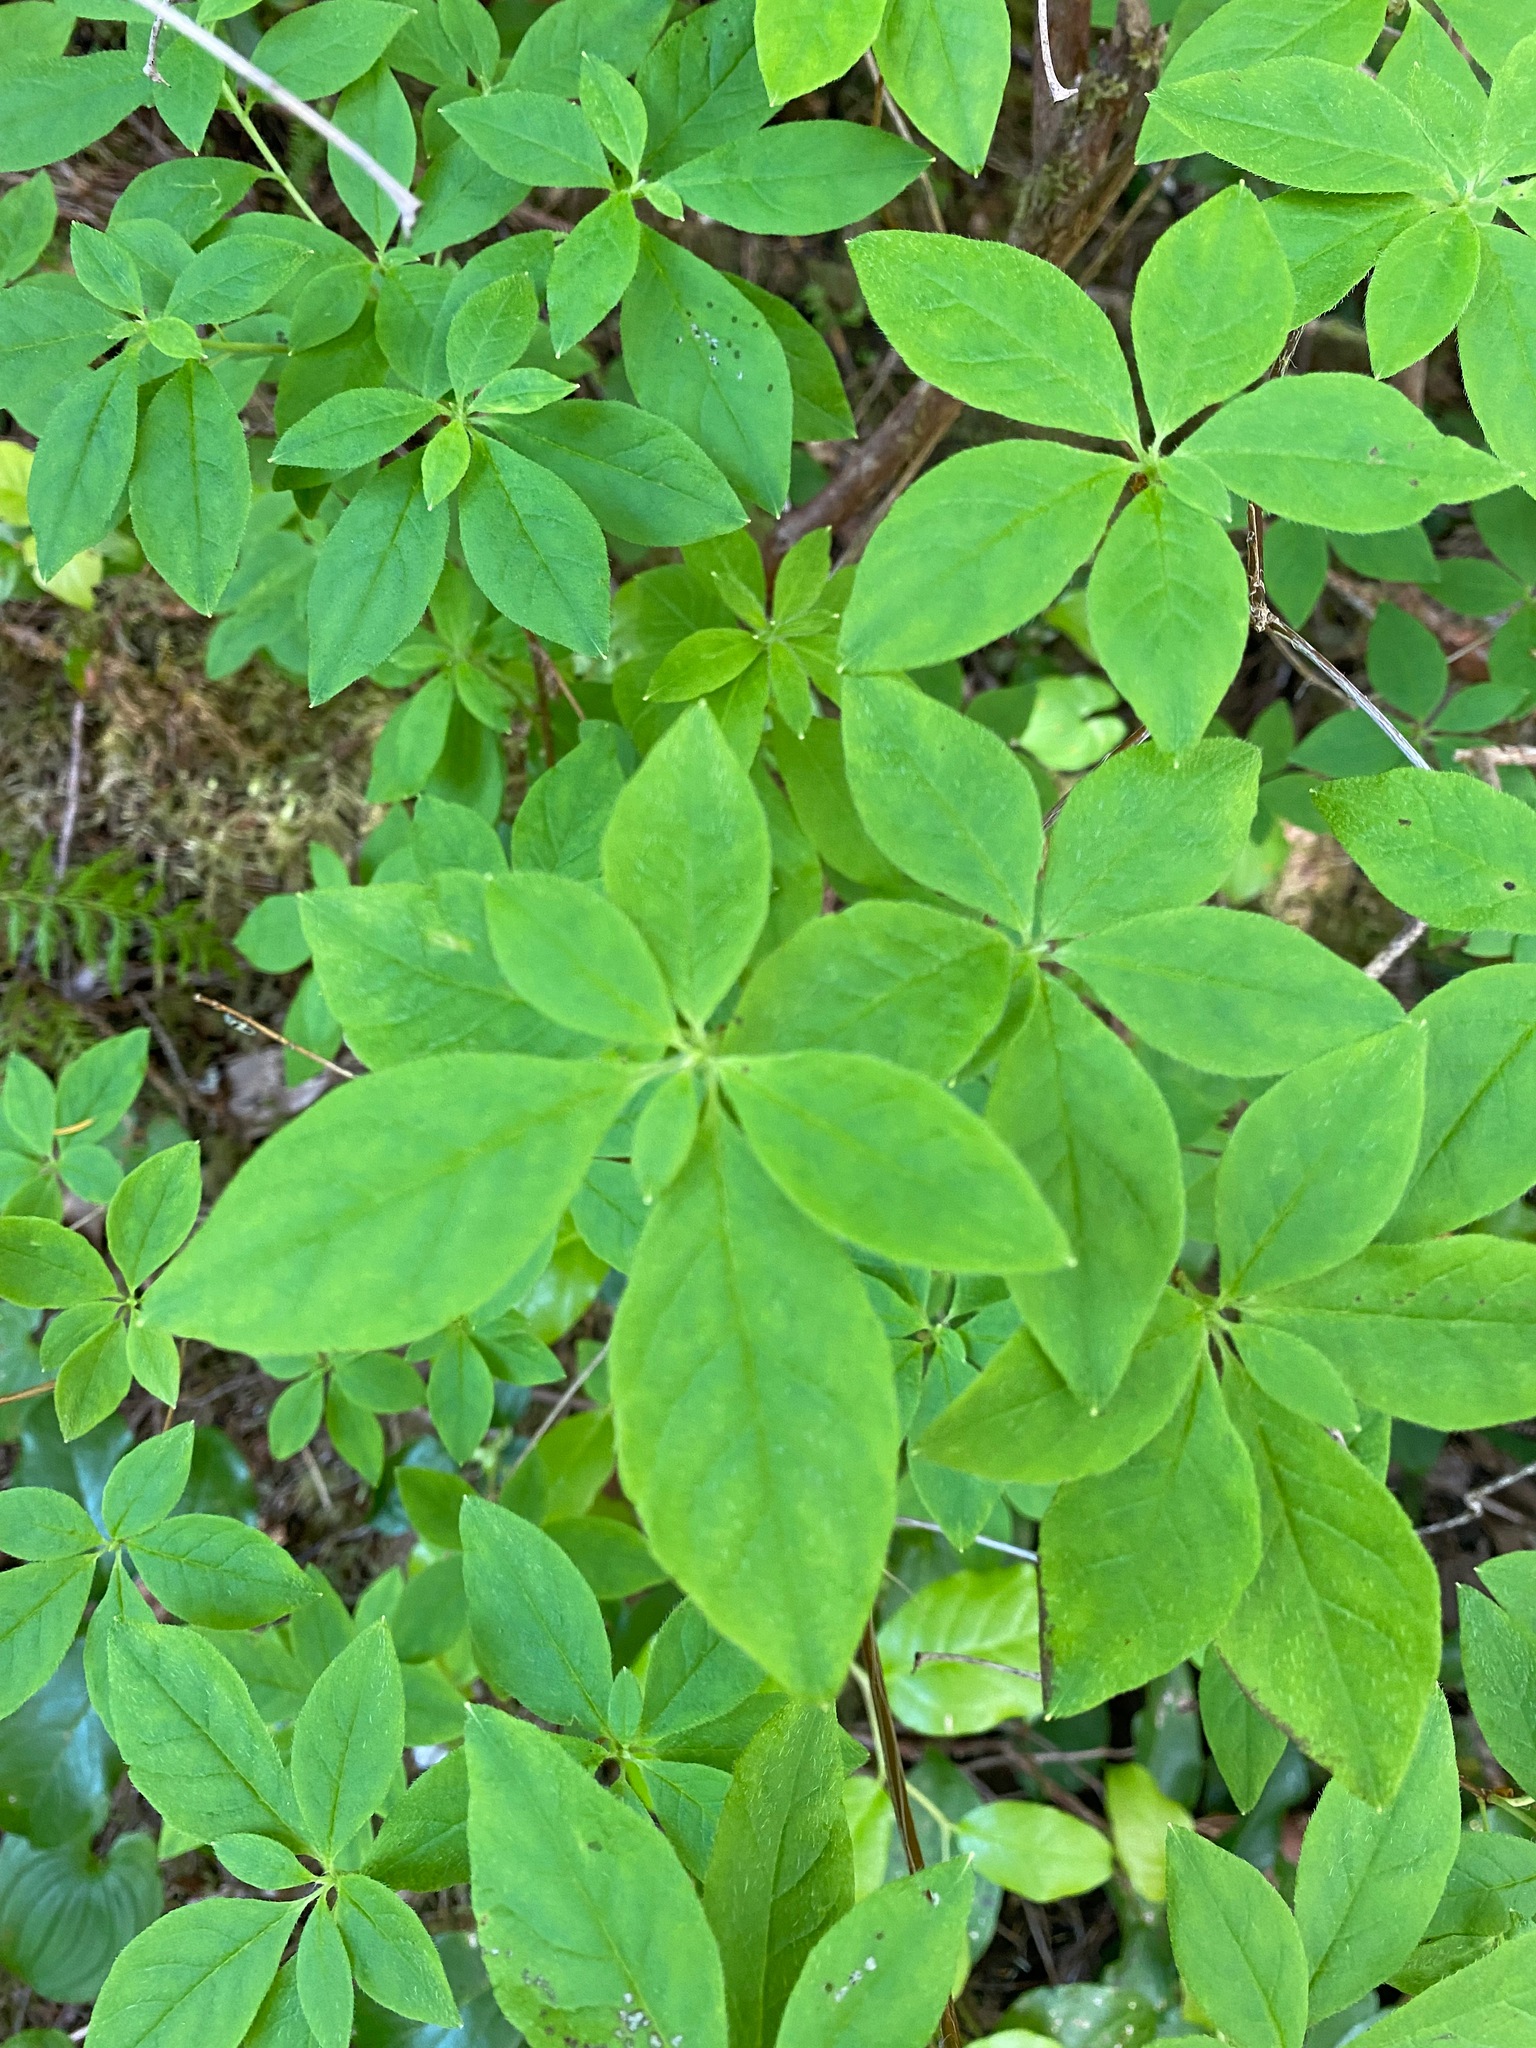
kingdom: Plantae
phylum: Tracheophyta
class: Magnoliopsida
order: Ericales
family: Ericaceae
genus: Rhododendron
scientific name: Rhododendron menziesii
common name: Pacific menziesia
